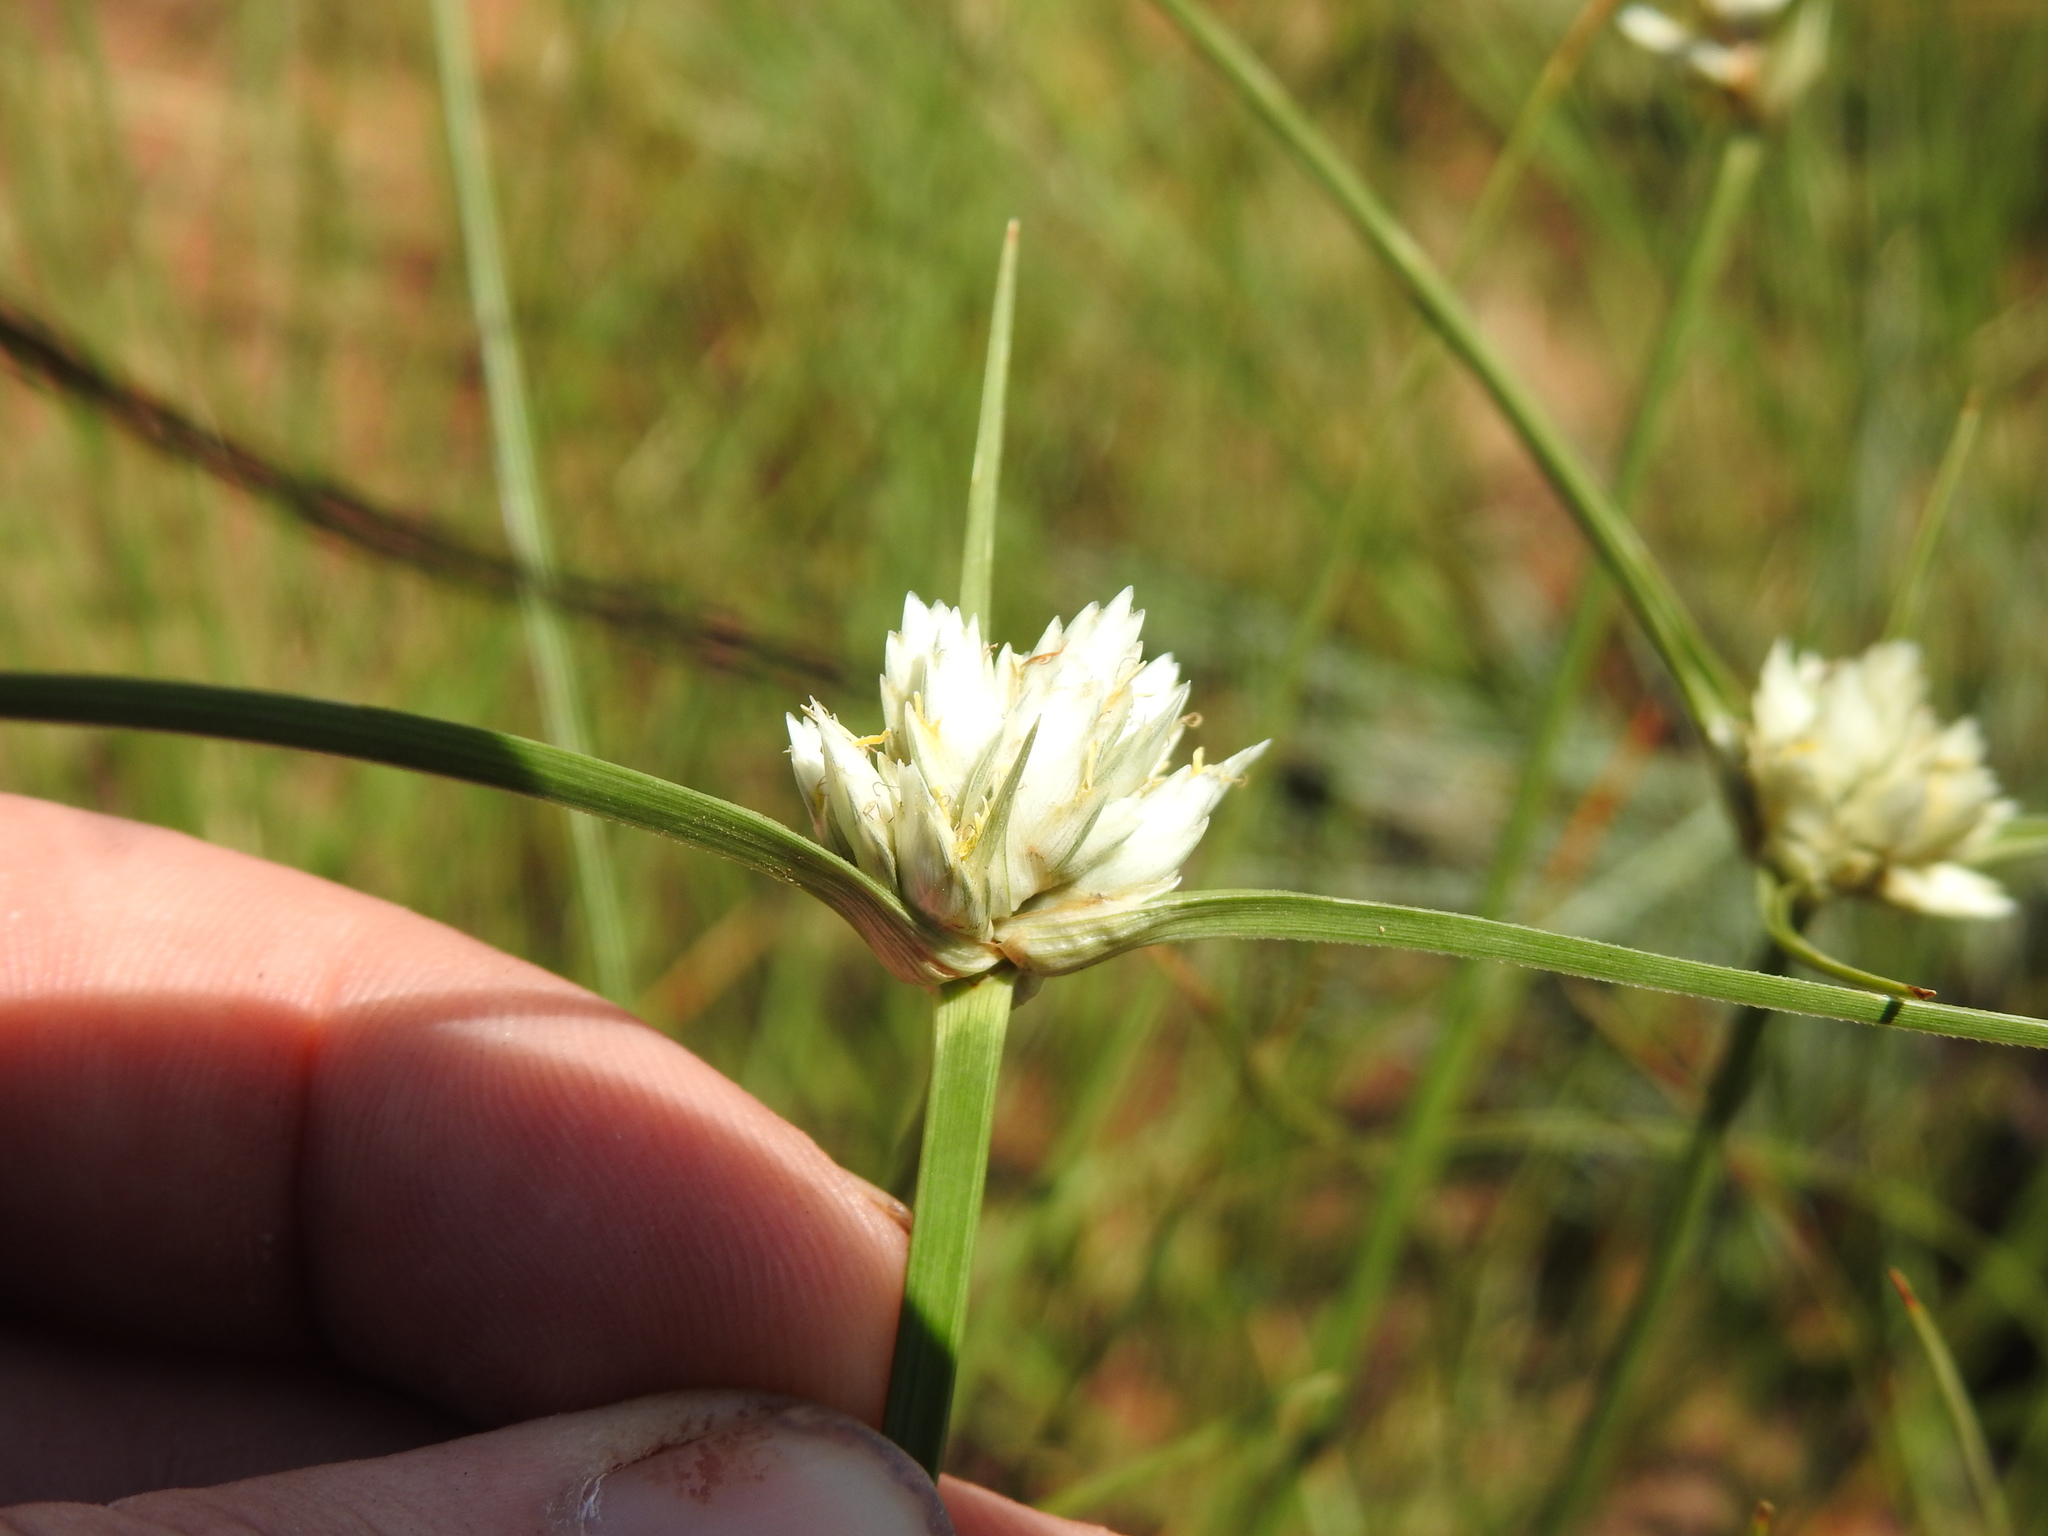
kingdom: Plantae
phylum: Tracheophyta
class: Liliopsida
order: Poales
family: Cyperaceae
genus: Cyperus
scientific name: Cyperus niveus
